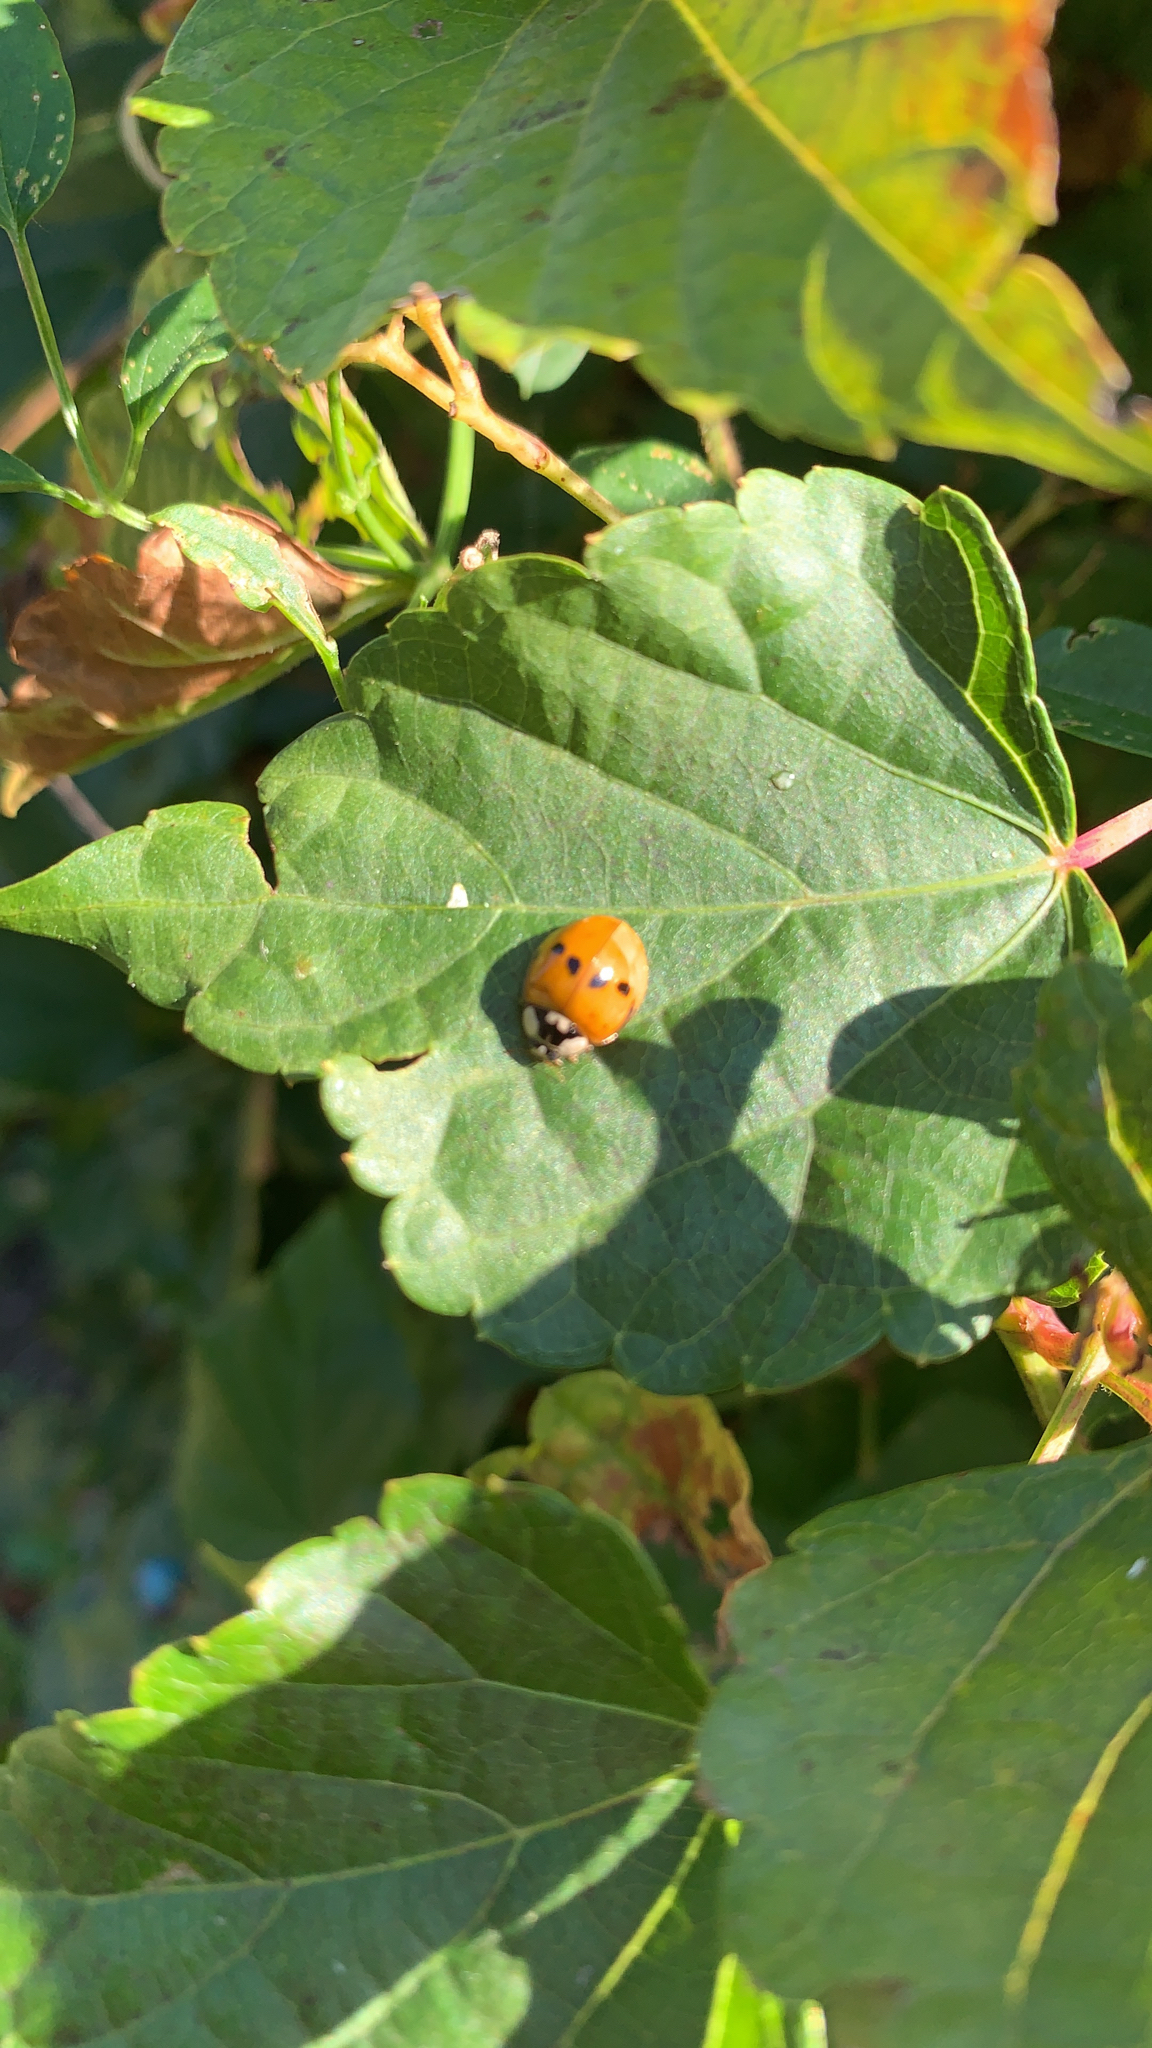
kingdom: Animalia
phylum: Arthropoda
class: Insecta
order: Coleoptera
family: Coccinellidae
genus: Harmonia
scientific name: Harmonia axyridis
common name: Harlequin ladybird
